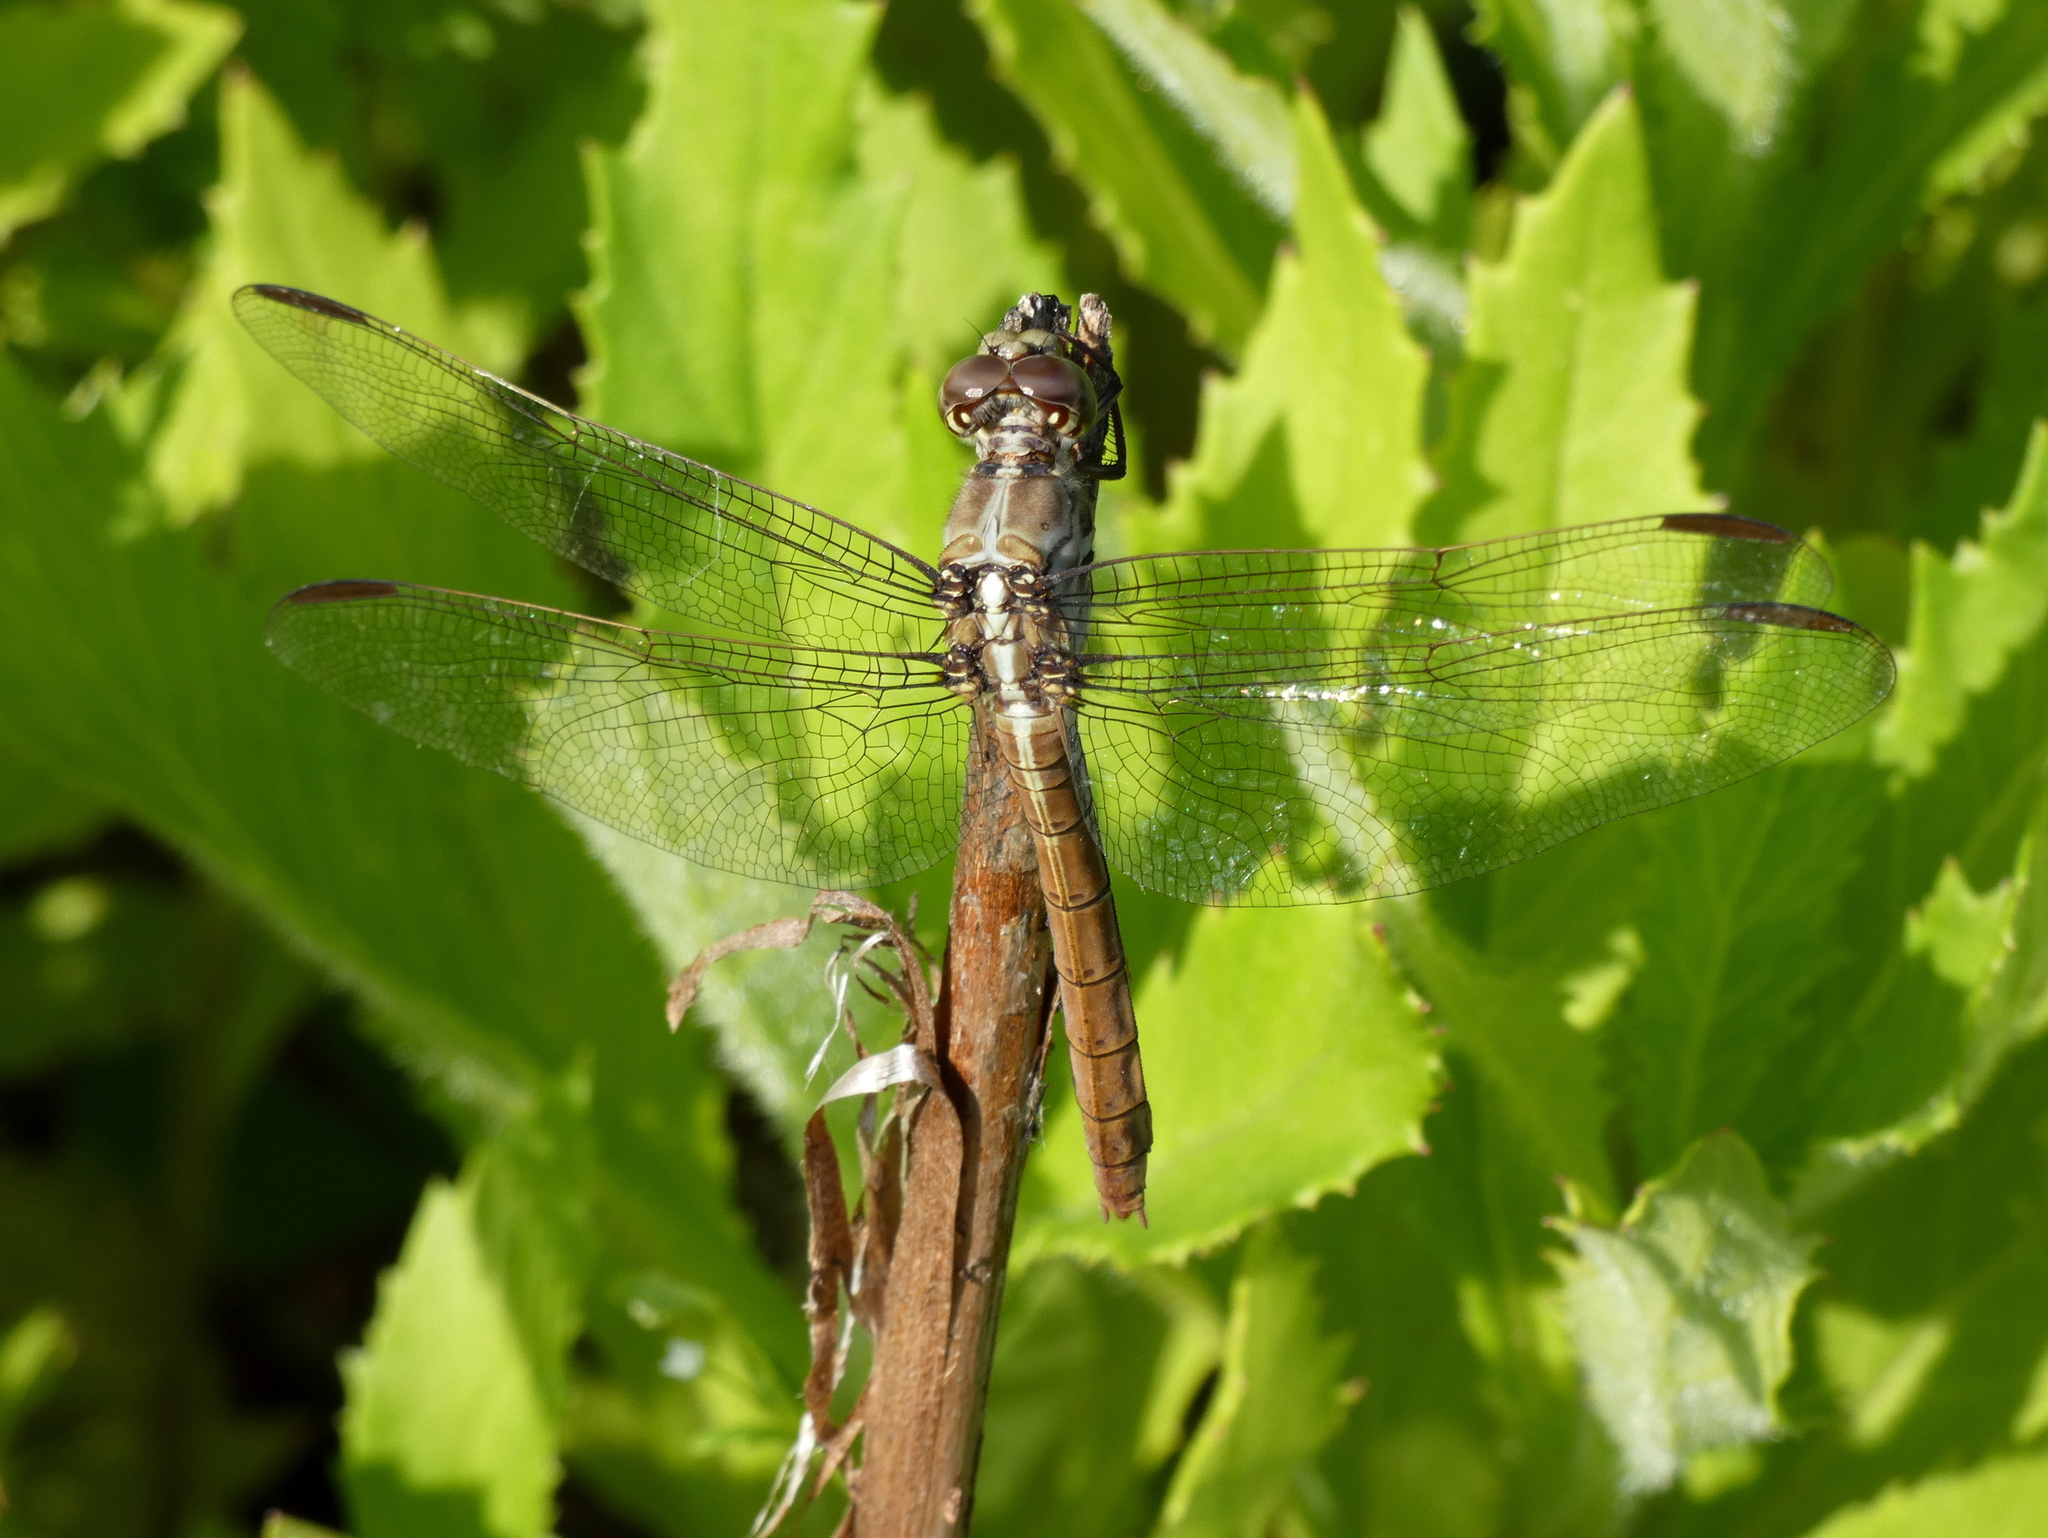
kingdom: Animalia
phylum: Arthropoda
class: Insecta
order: Odonata
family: Libellulidae
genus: Orthemis
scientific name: Orthemis ferruginea
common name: Roseate skimmer
